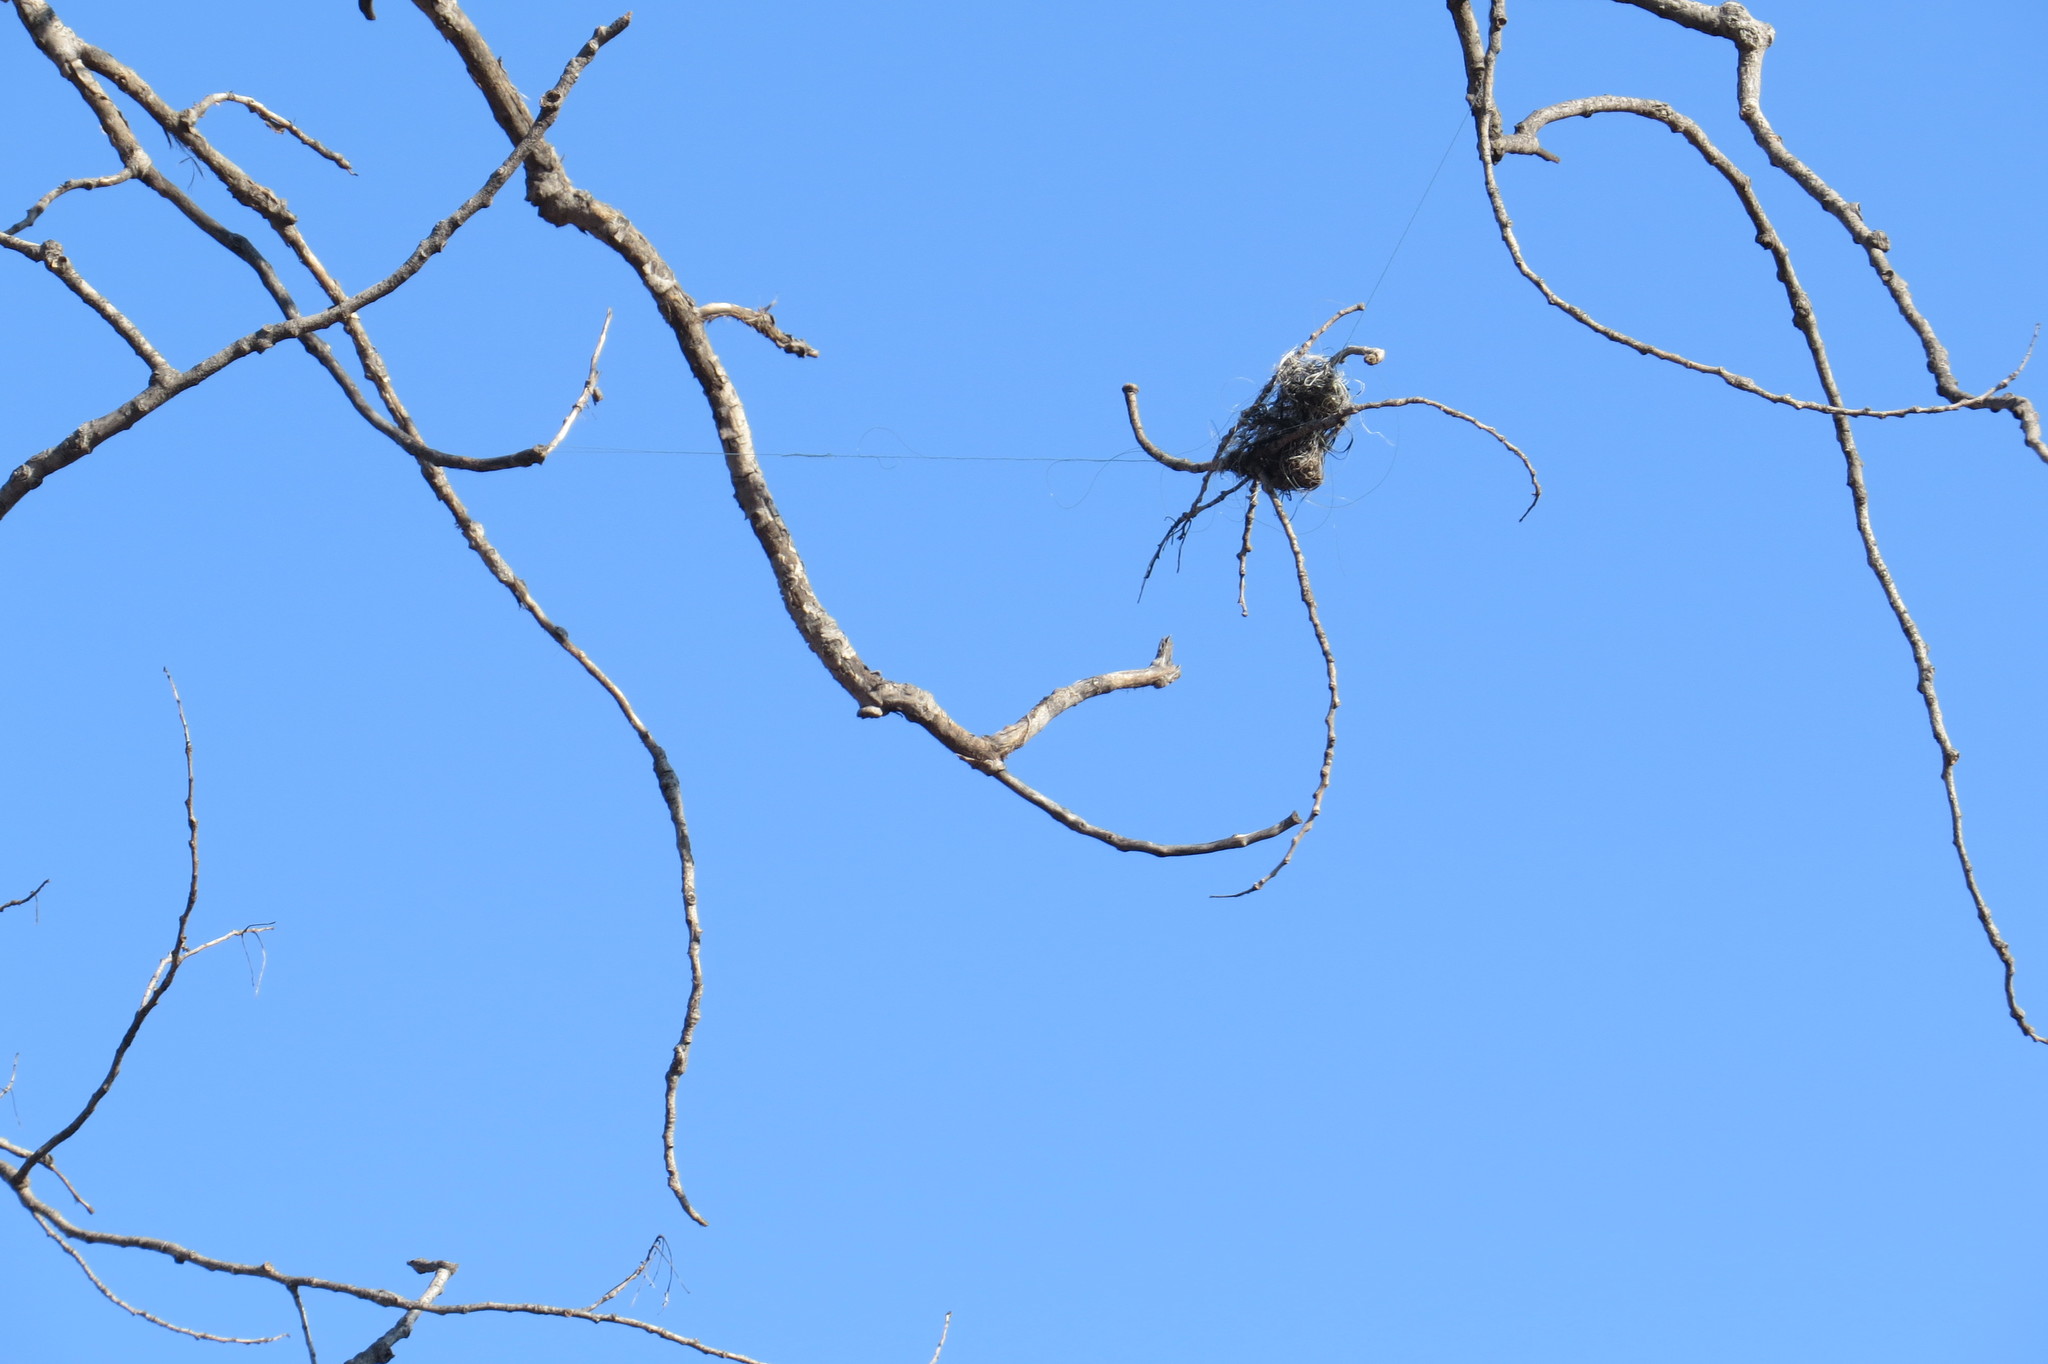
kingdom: Animalia
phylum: Chordata
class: Aves
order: Passeriformes
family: Icteridae
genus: Icterus
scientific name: Icterus galbula
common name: Baltimore oriole
